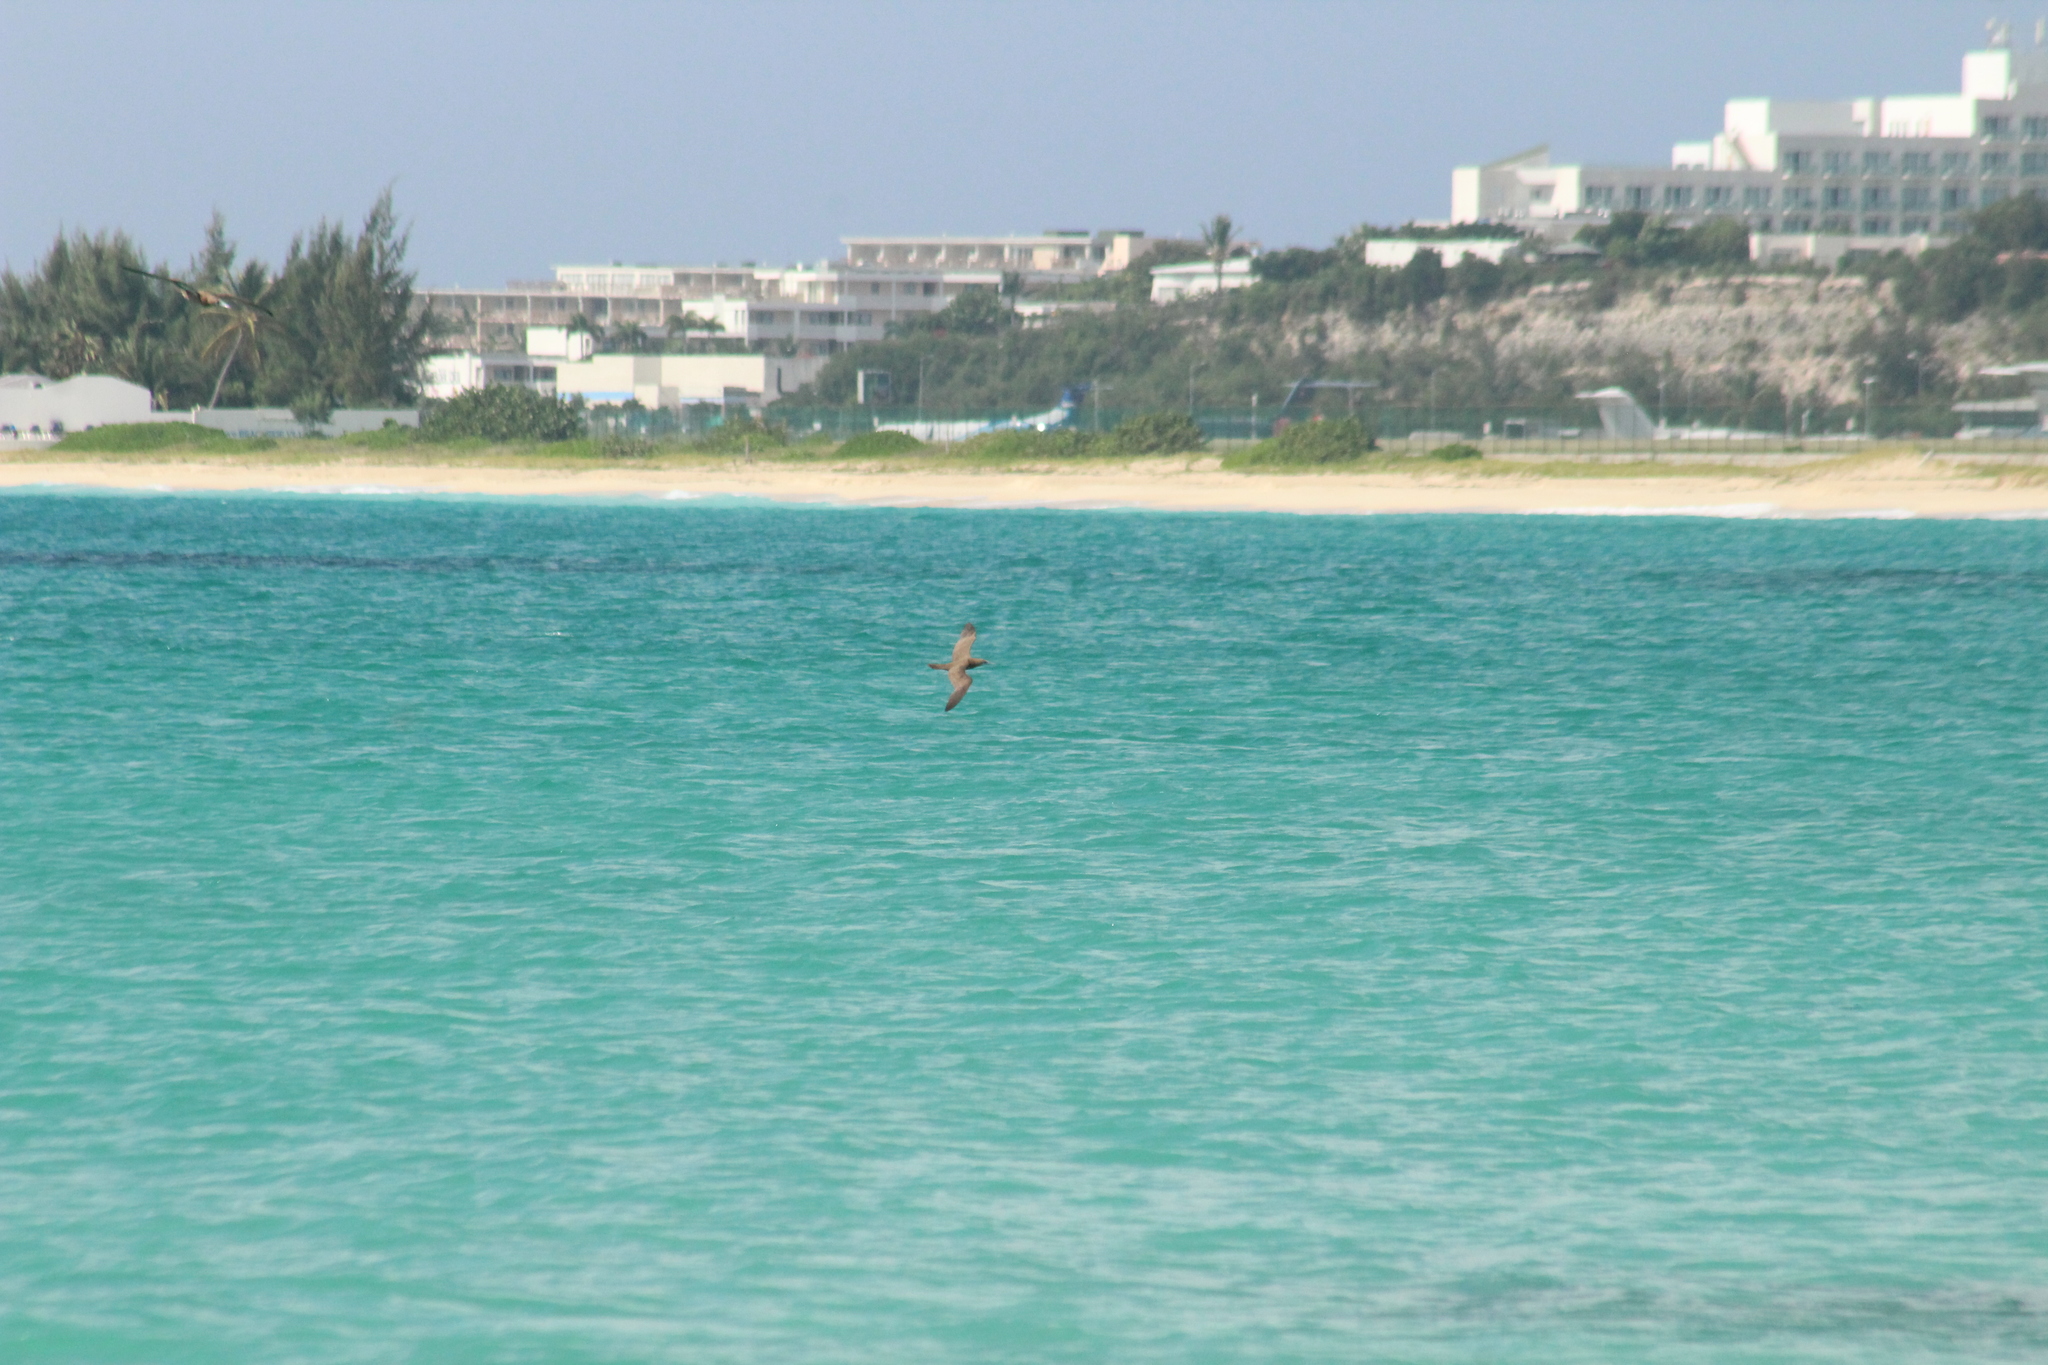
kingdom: Animalia
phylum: Chordata
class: Aves
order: Suliformes
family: Sulidae
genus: Sula
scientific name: Sula leucogaster
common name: Brown booby
